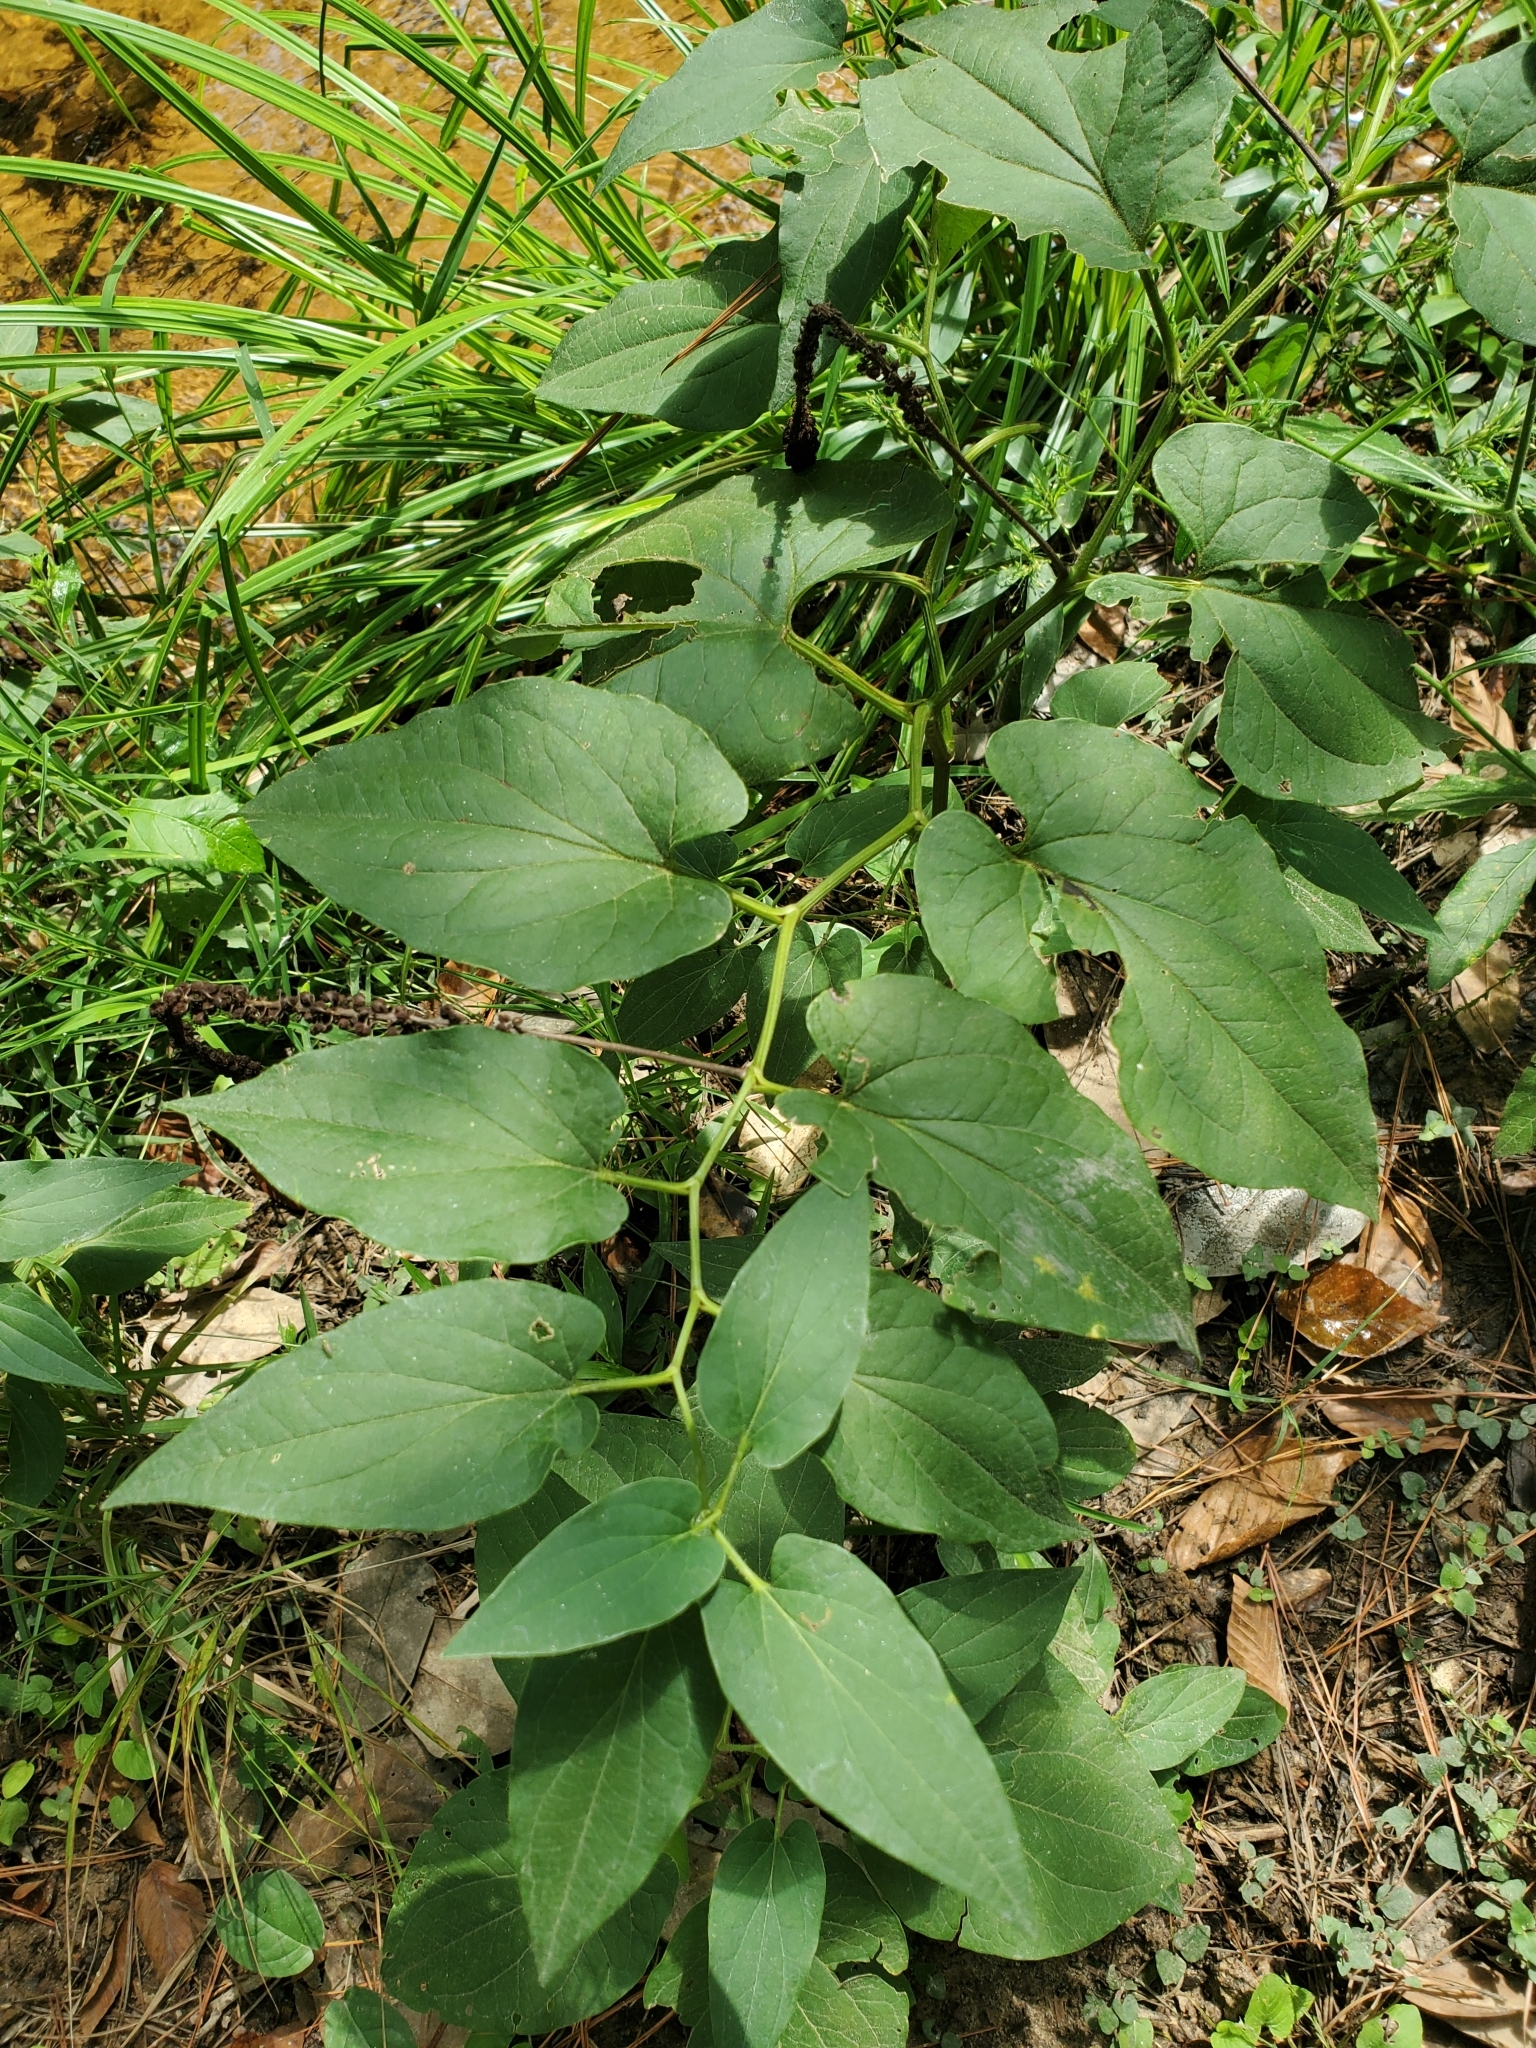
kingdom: Plantae
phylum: Tracheophyta
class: Magnoliopsida
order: Piperales
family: Saururaceae
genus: Saururus
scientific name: Saururus cernuus
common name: Lizard's-tail
